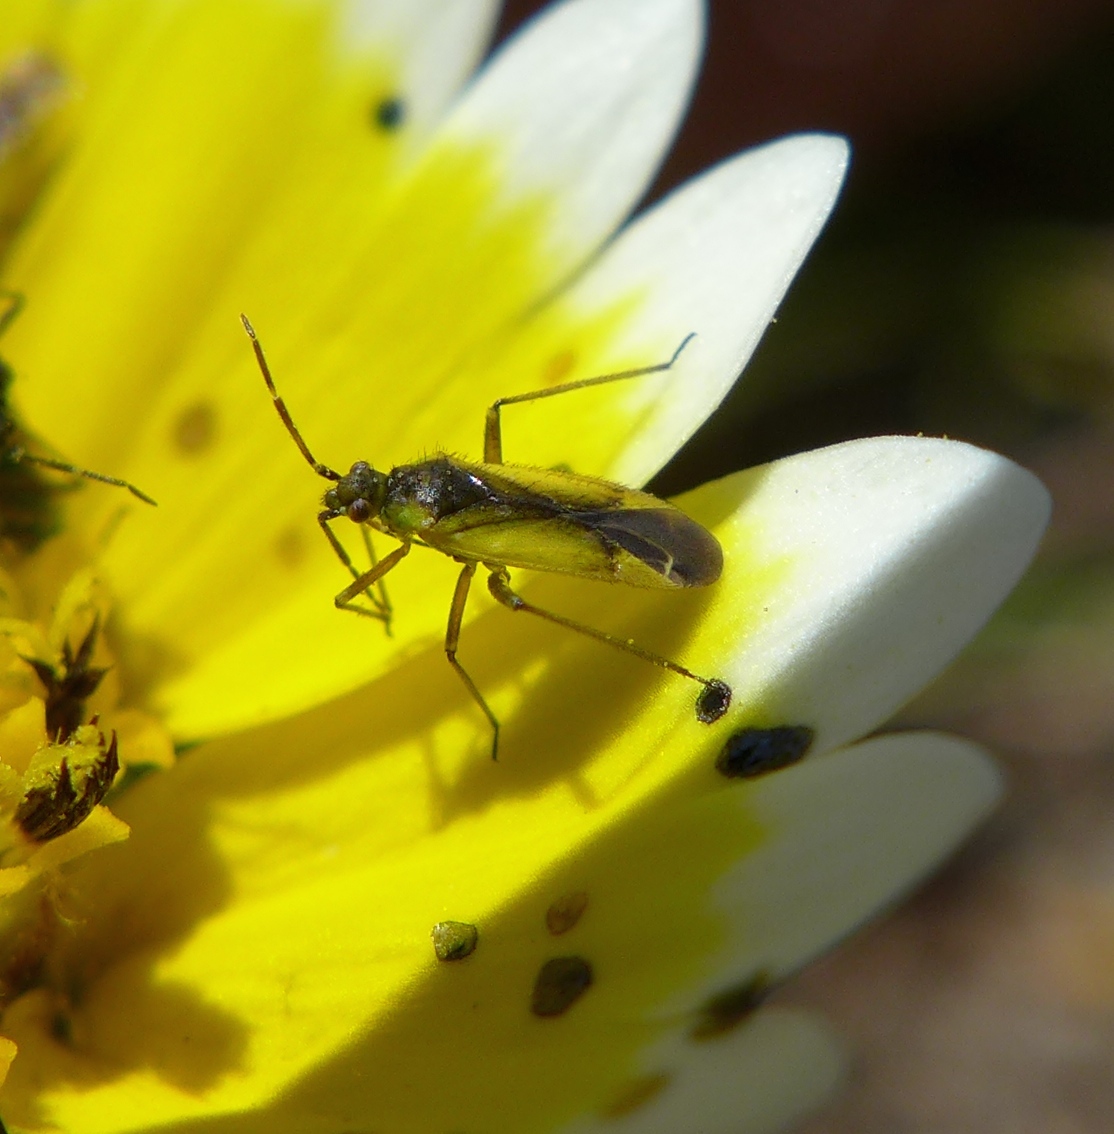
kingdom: Animalia
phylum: Arthropoda
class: Insecta
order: Hemiptera
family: Miridae
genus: Macrotylus
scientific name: Macrotylus dorsalis
